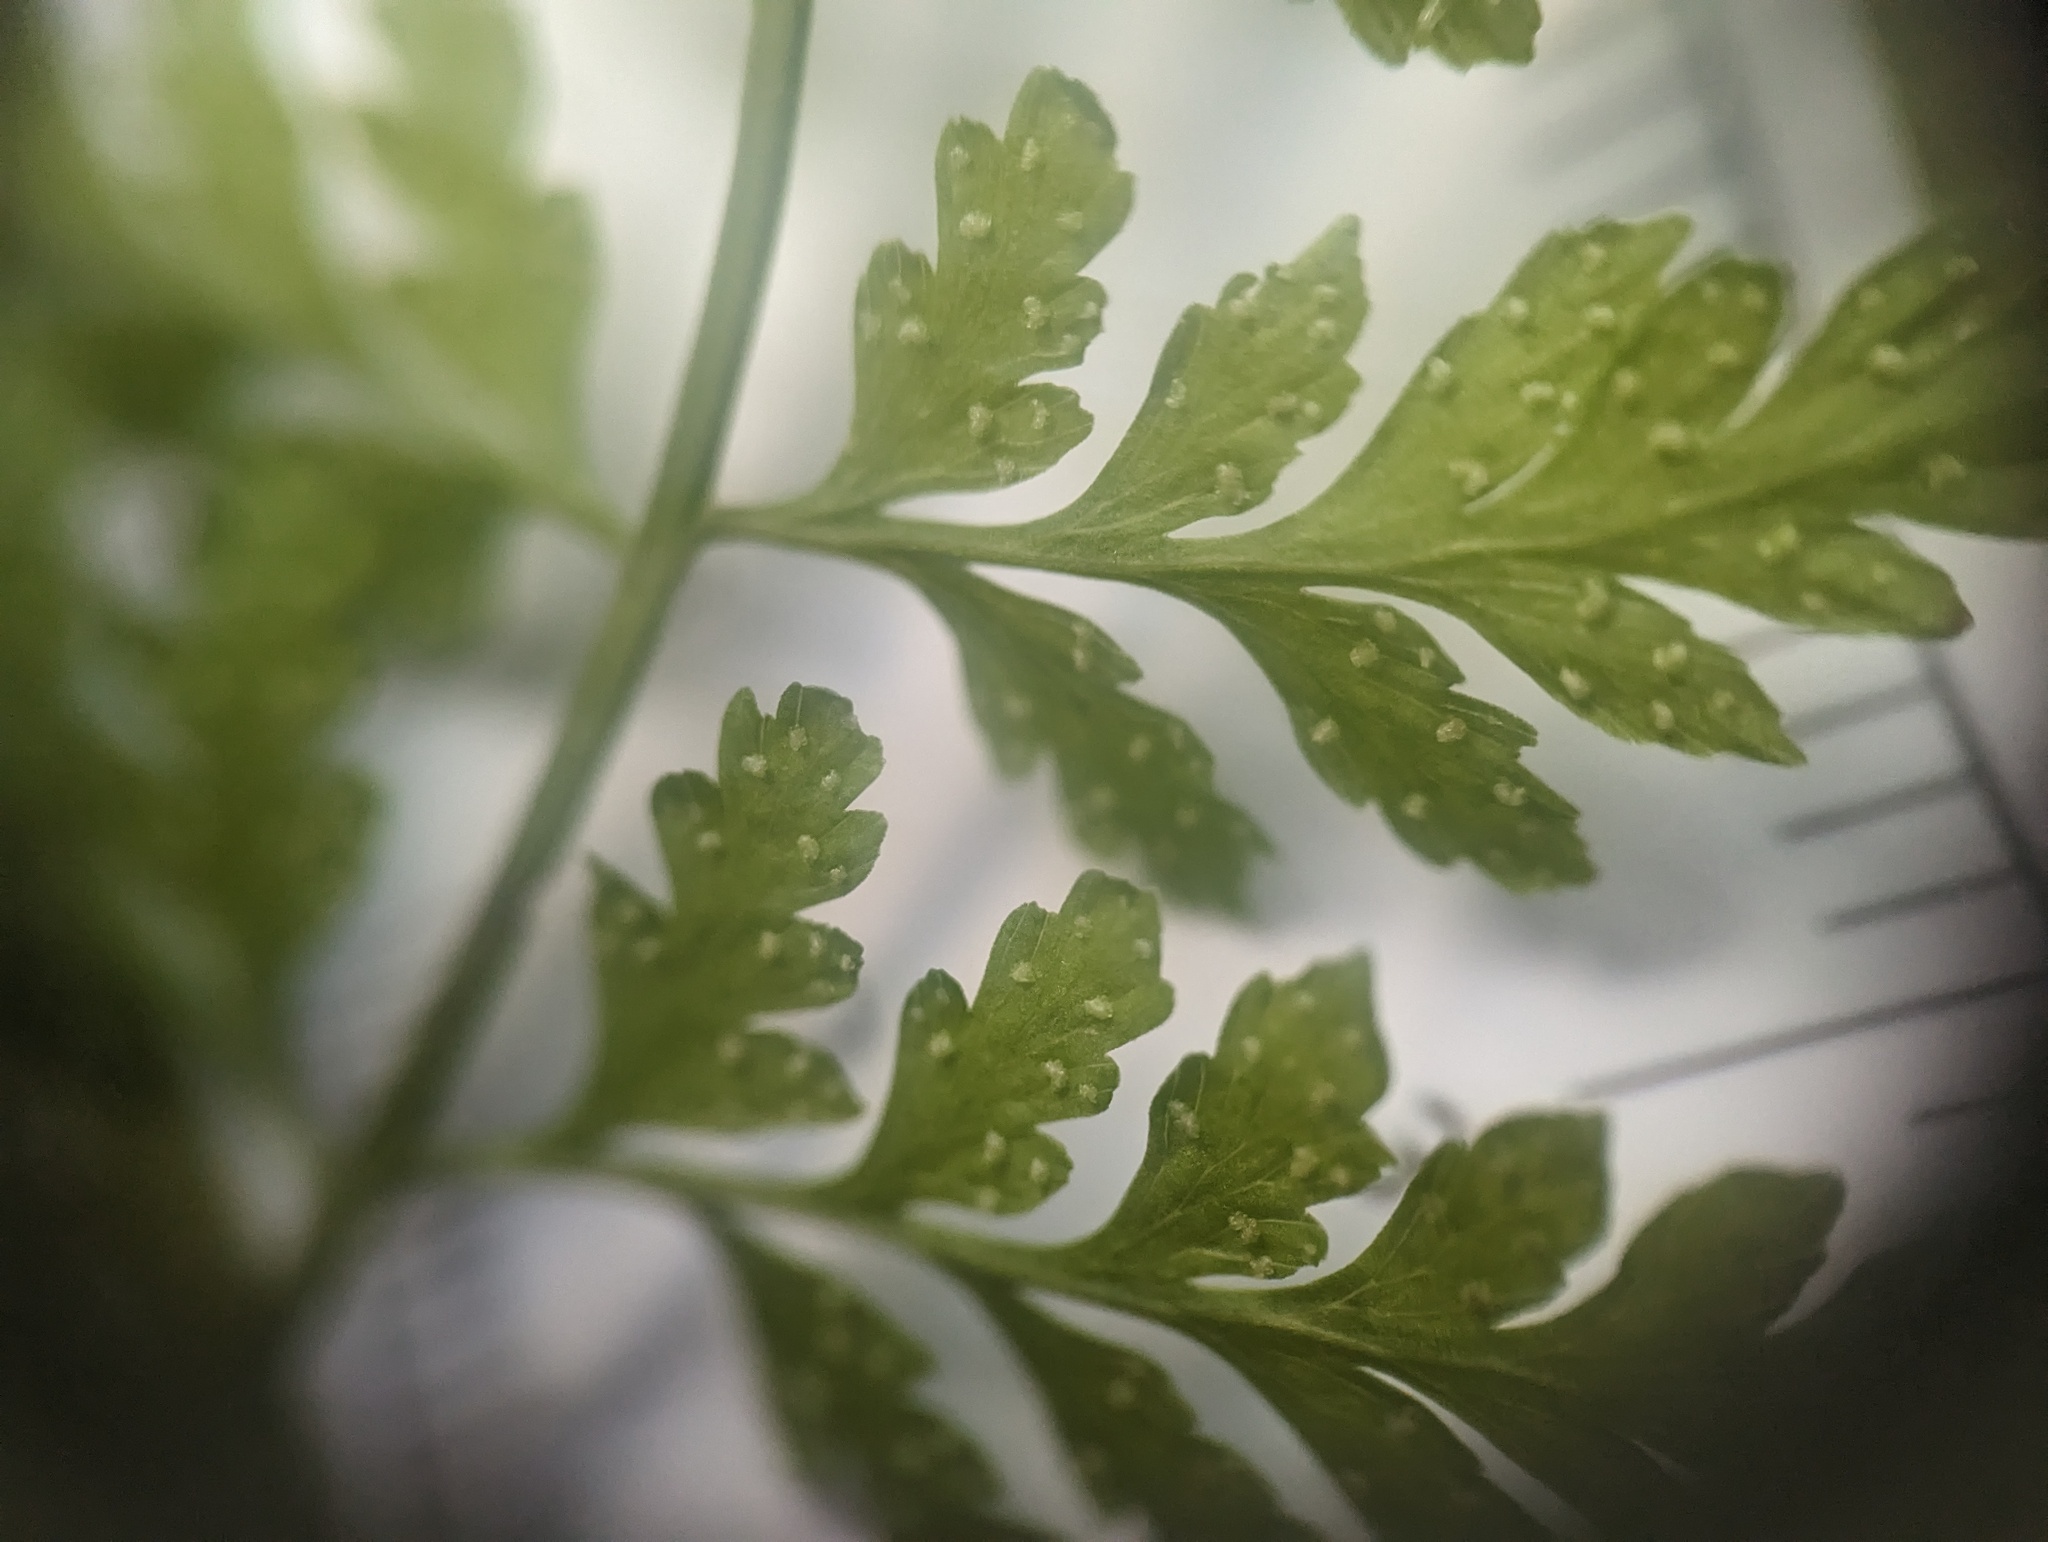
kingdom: Plantae
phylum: Tracheophyta
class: Polypodiopsida
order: Polypodiales
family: Cystopteridaceae
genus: Cystopteris
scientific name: Cystopteris protrusa
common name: Lowland brittle fern
